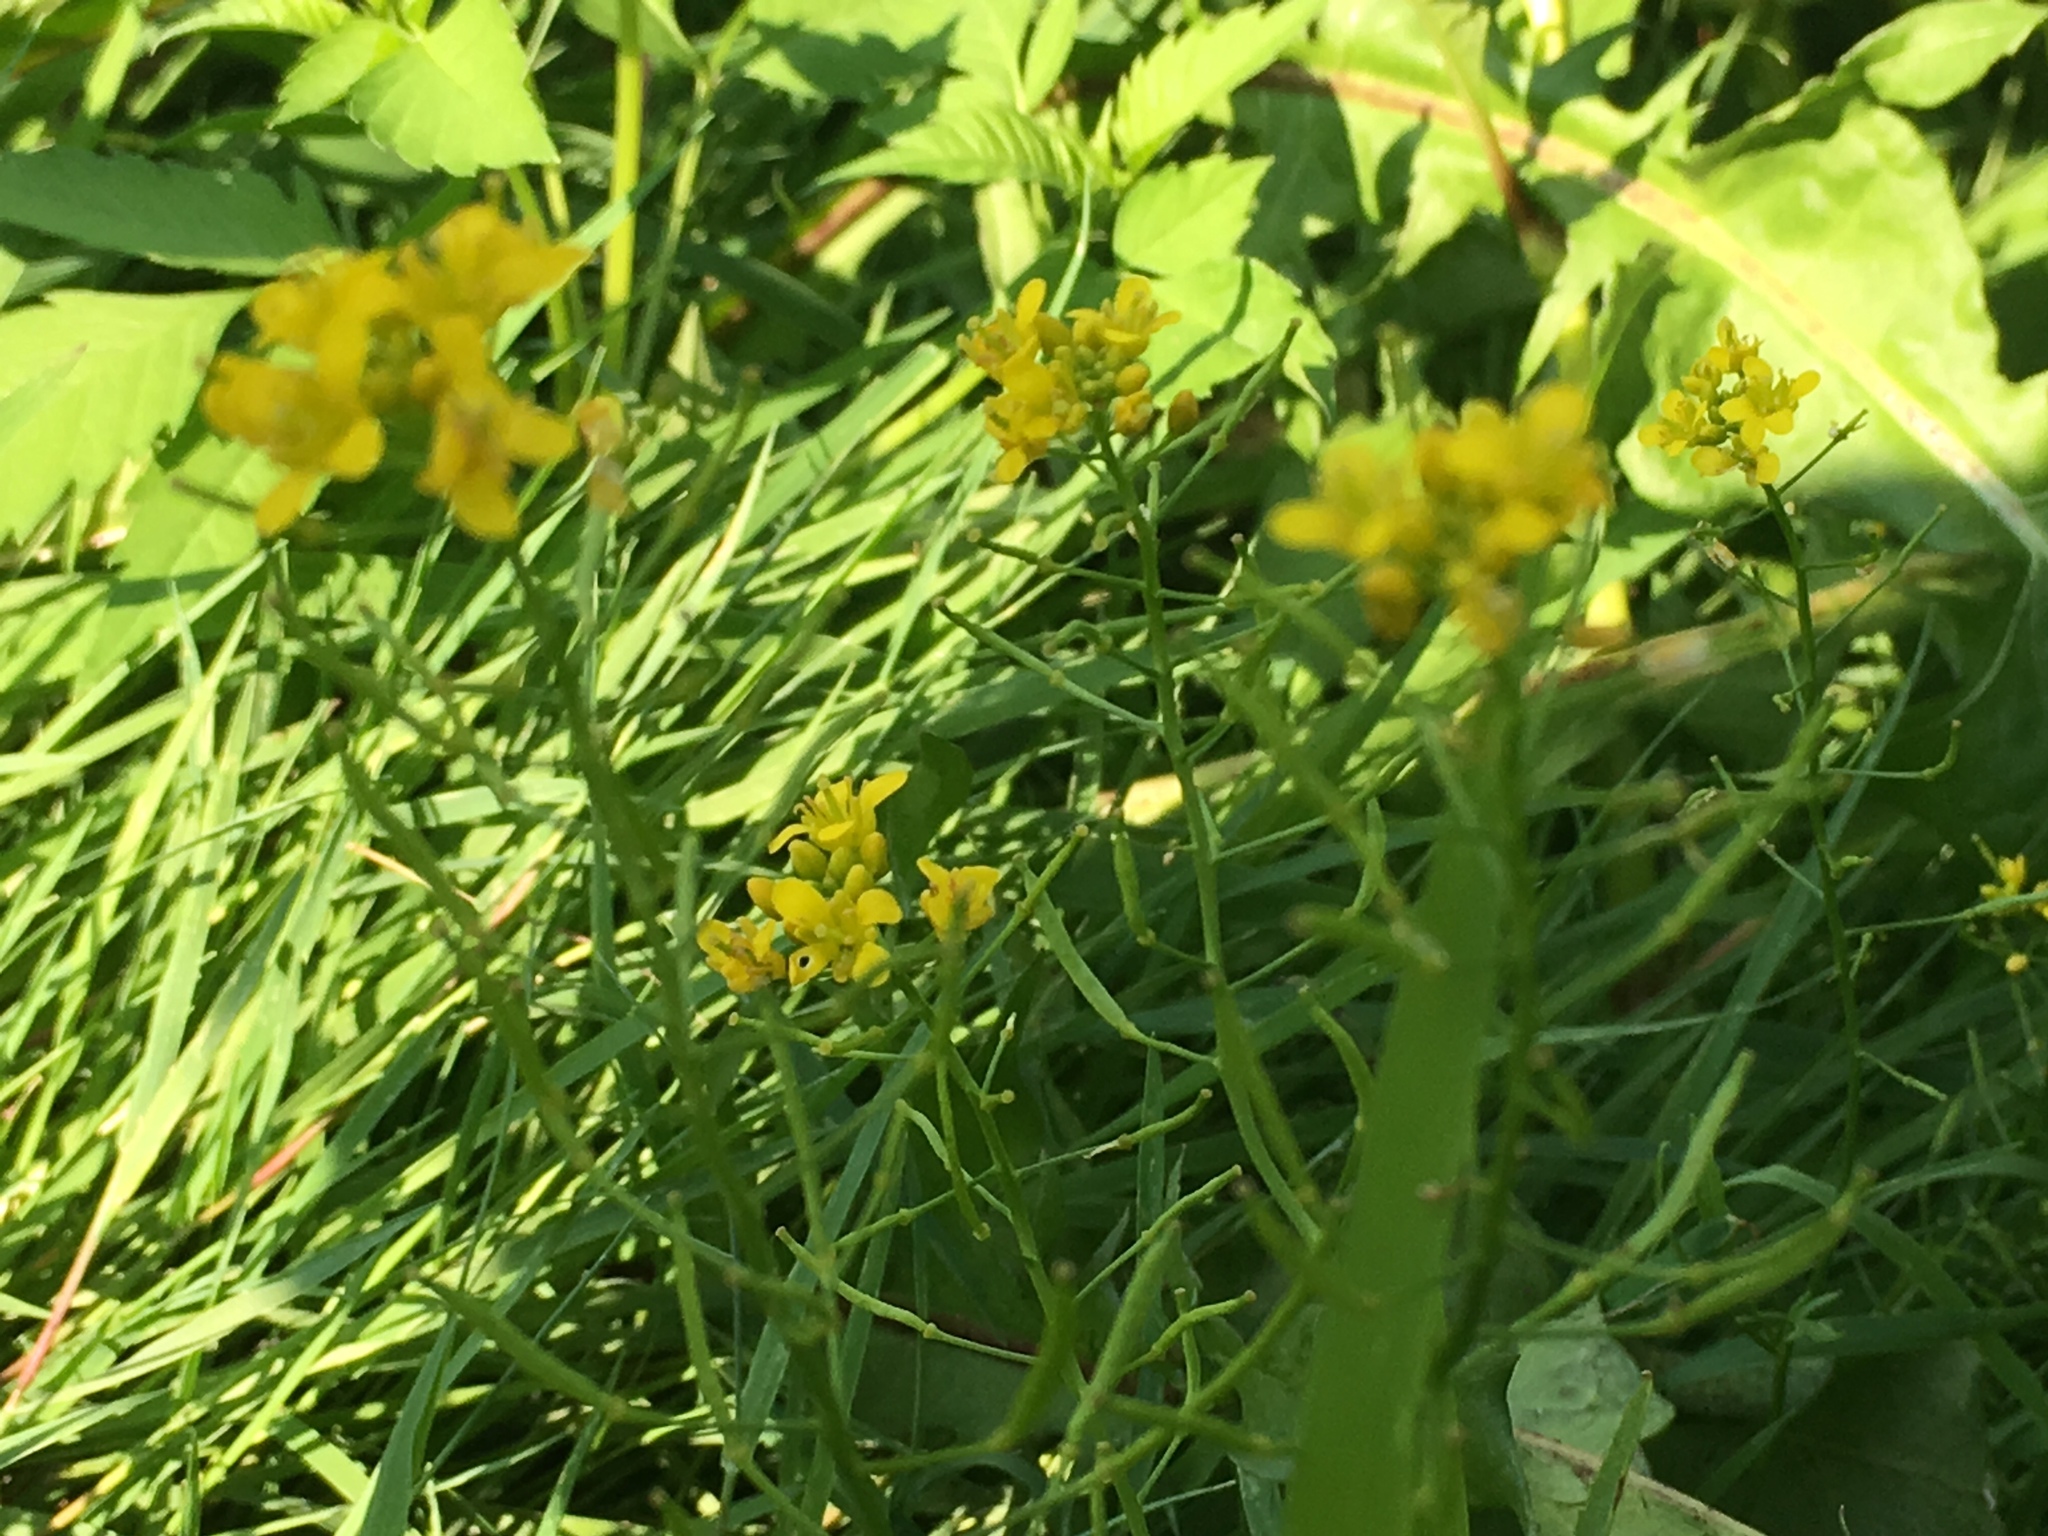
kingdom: Plantae
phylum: Tracheophyta
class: Magnoliopsida
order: Brassicales
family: Brassicaceae
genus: Rorippa
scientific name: Rorippa sylvestris
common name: Creeping yellowcress
